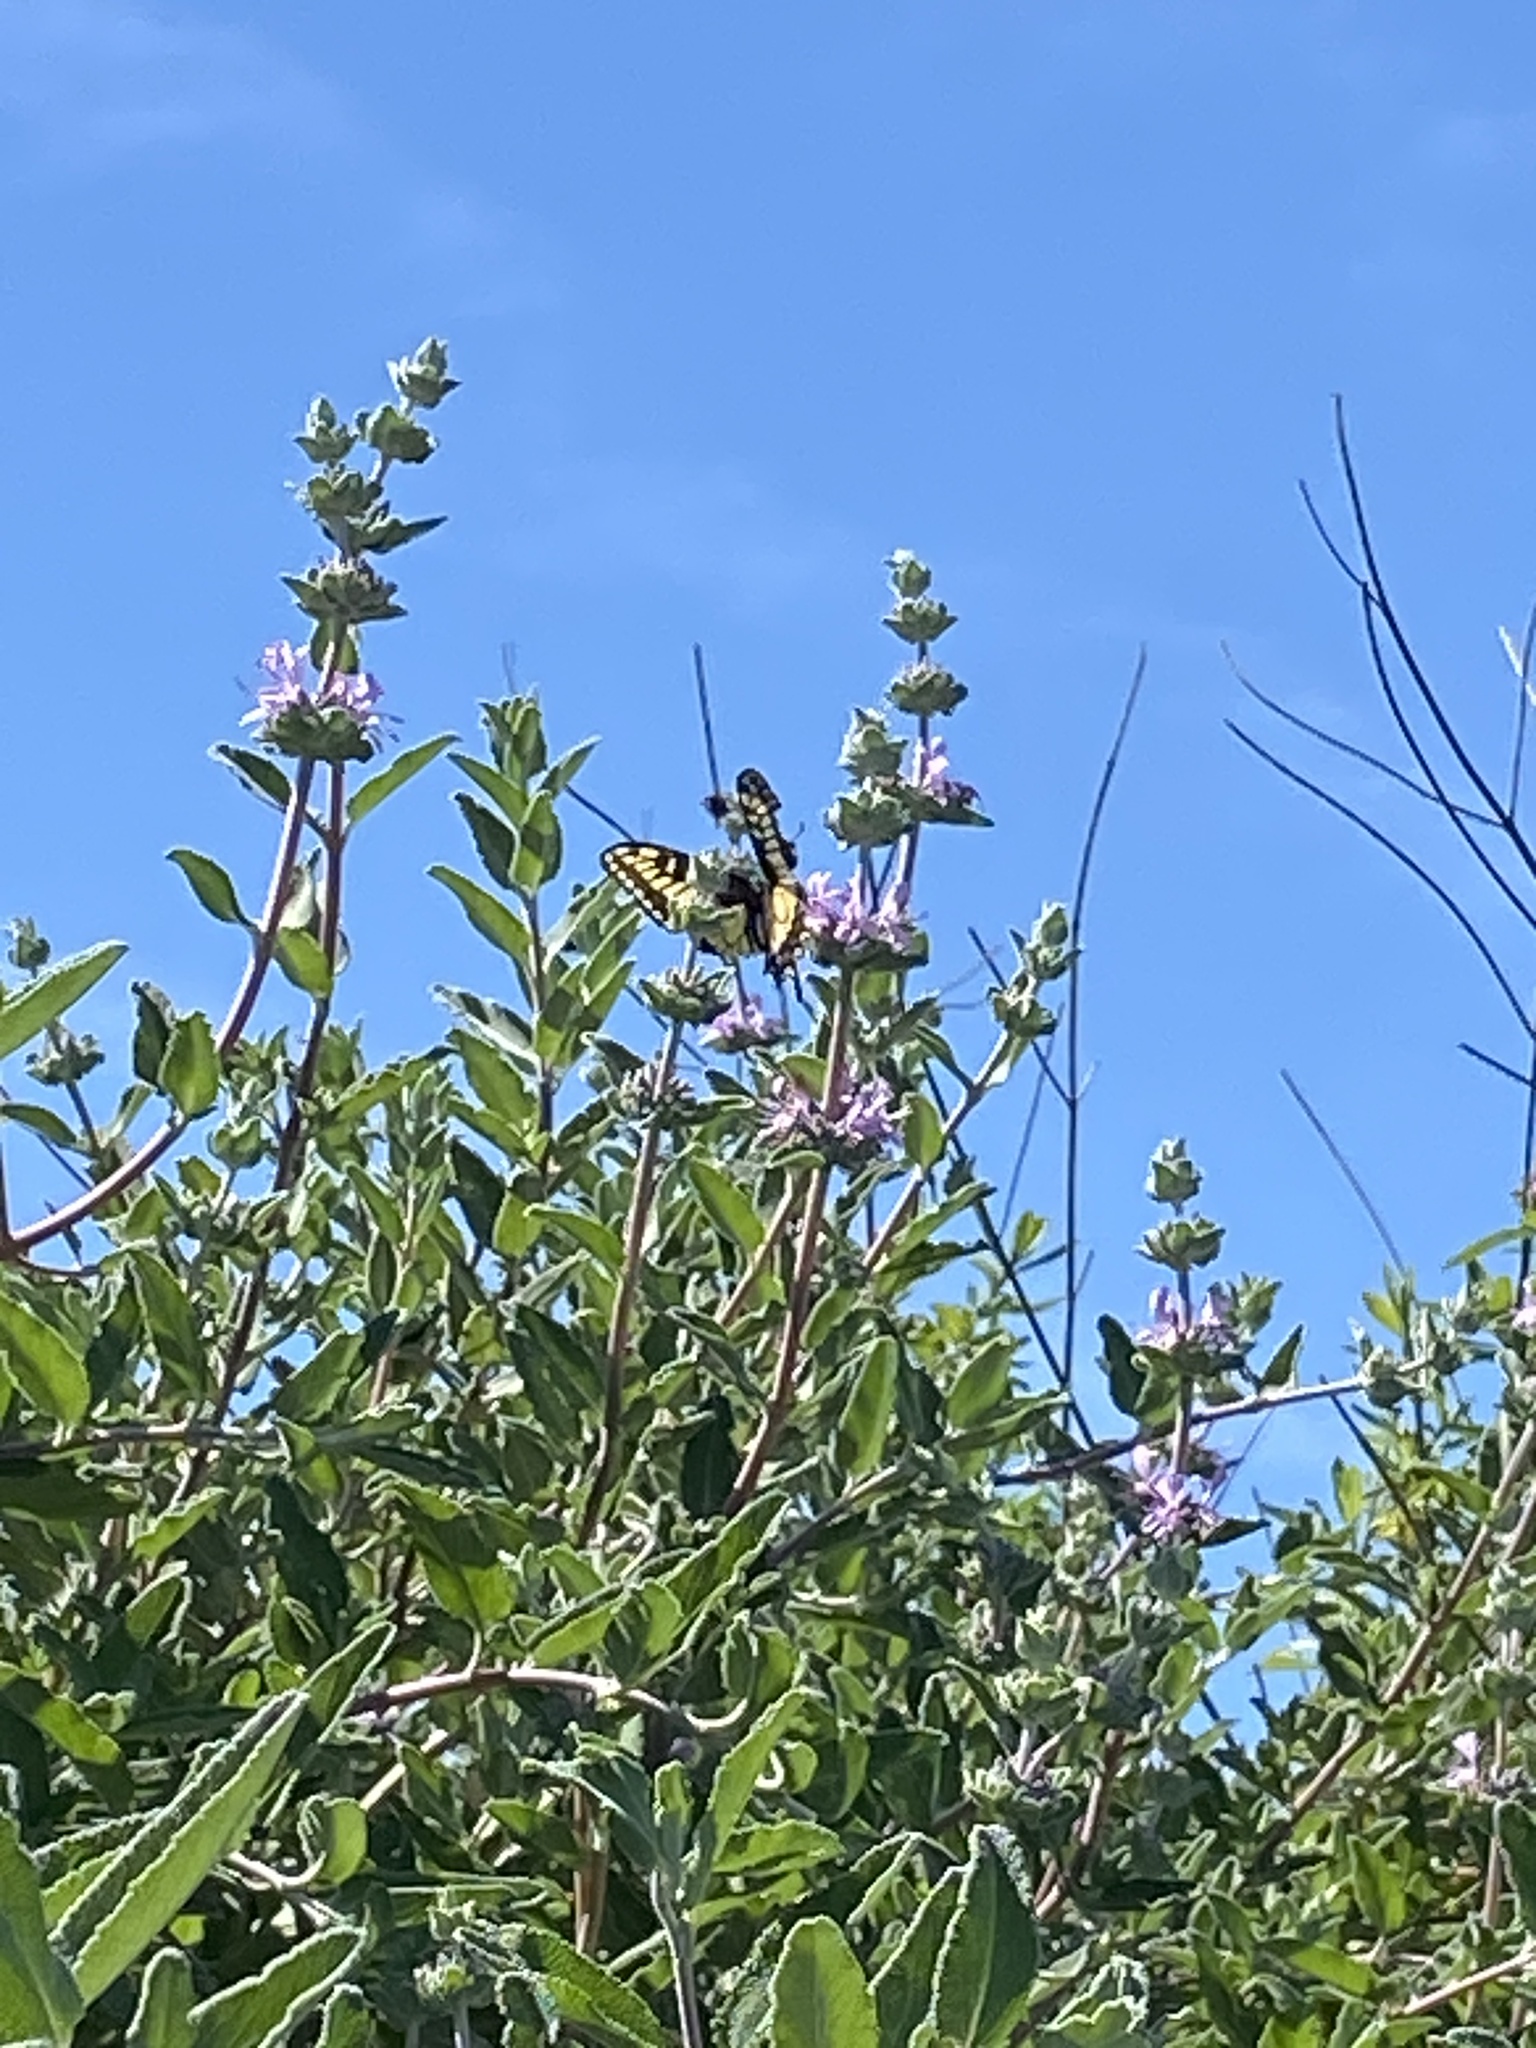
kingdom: Animalia
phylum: Arthropoda
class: Insecta
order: Lepidoptera
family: Papilionidae
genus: Papilio
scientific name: Papilio zelicaon
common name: Anise swallowtail
